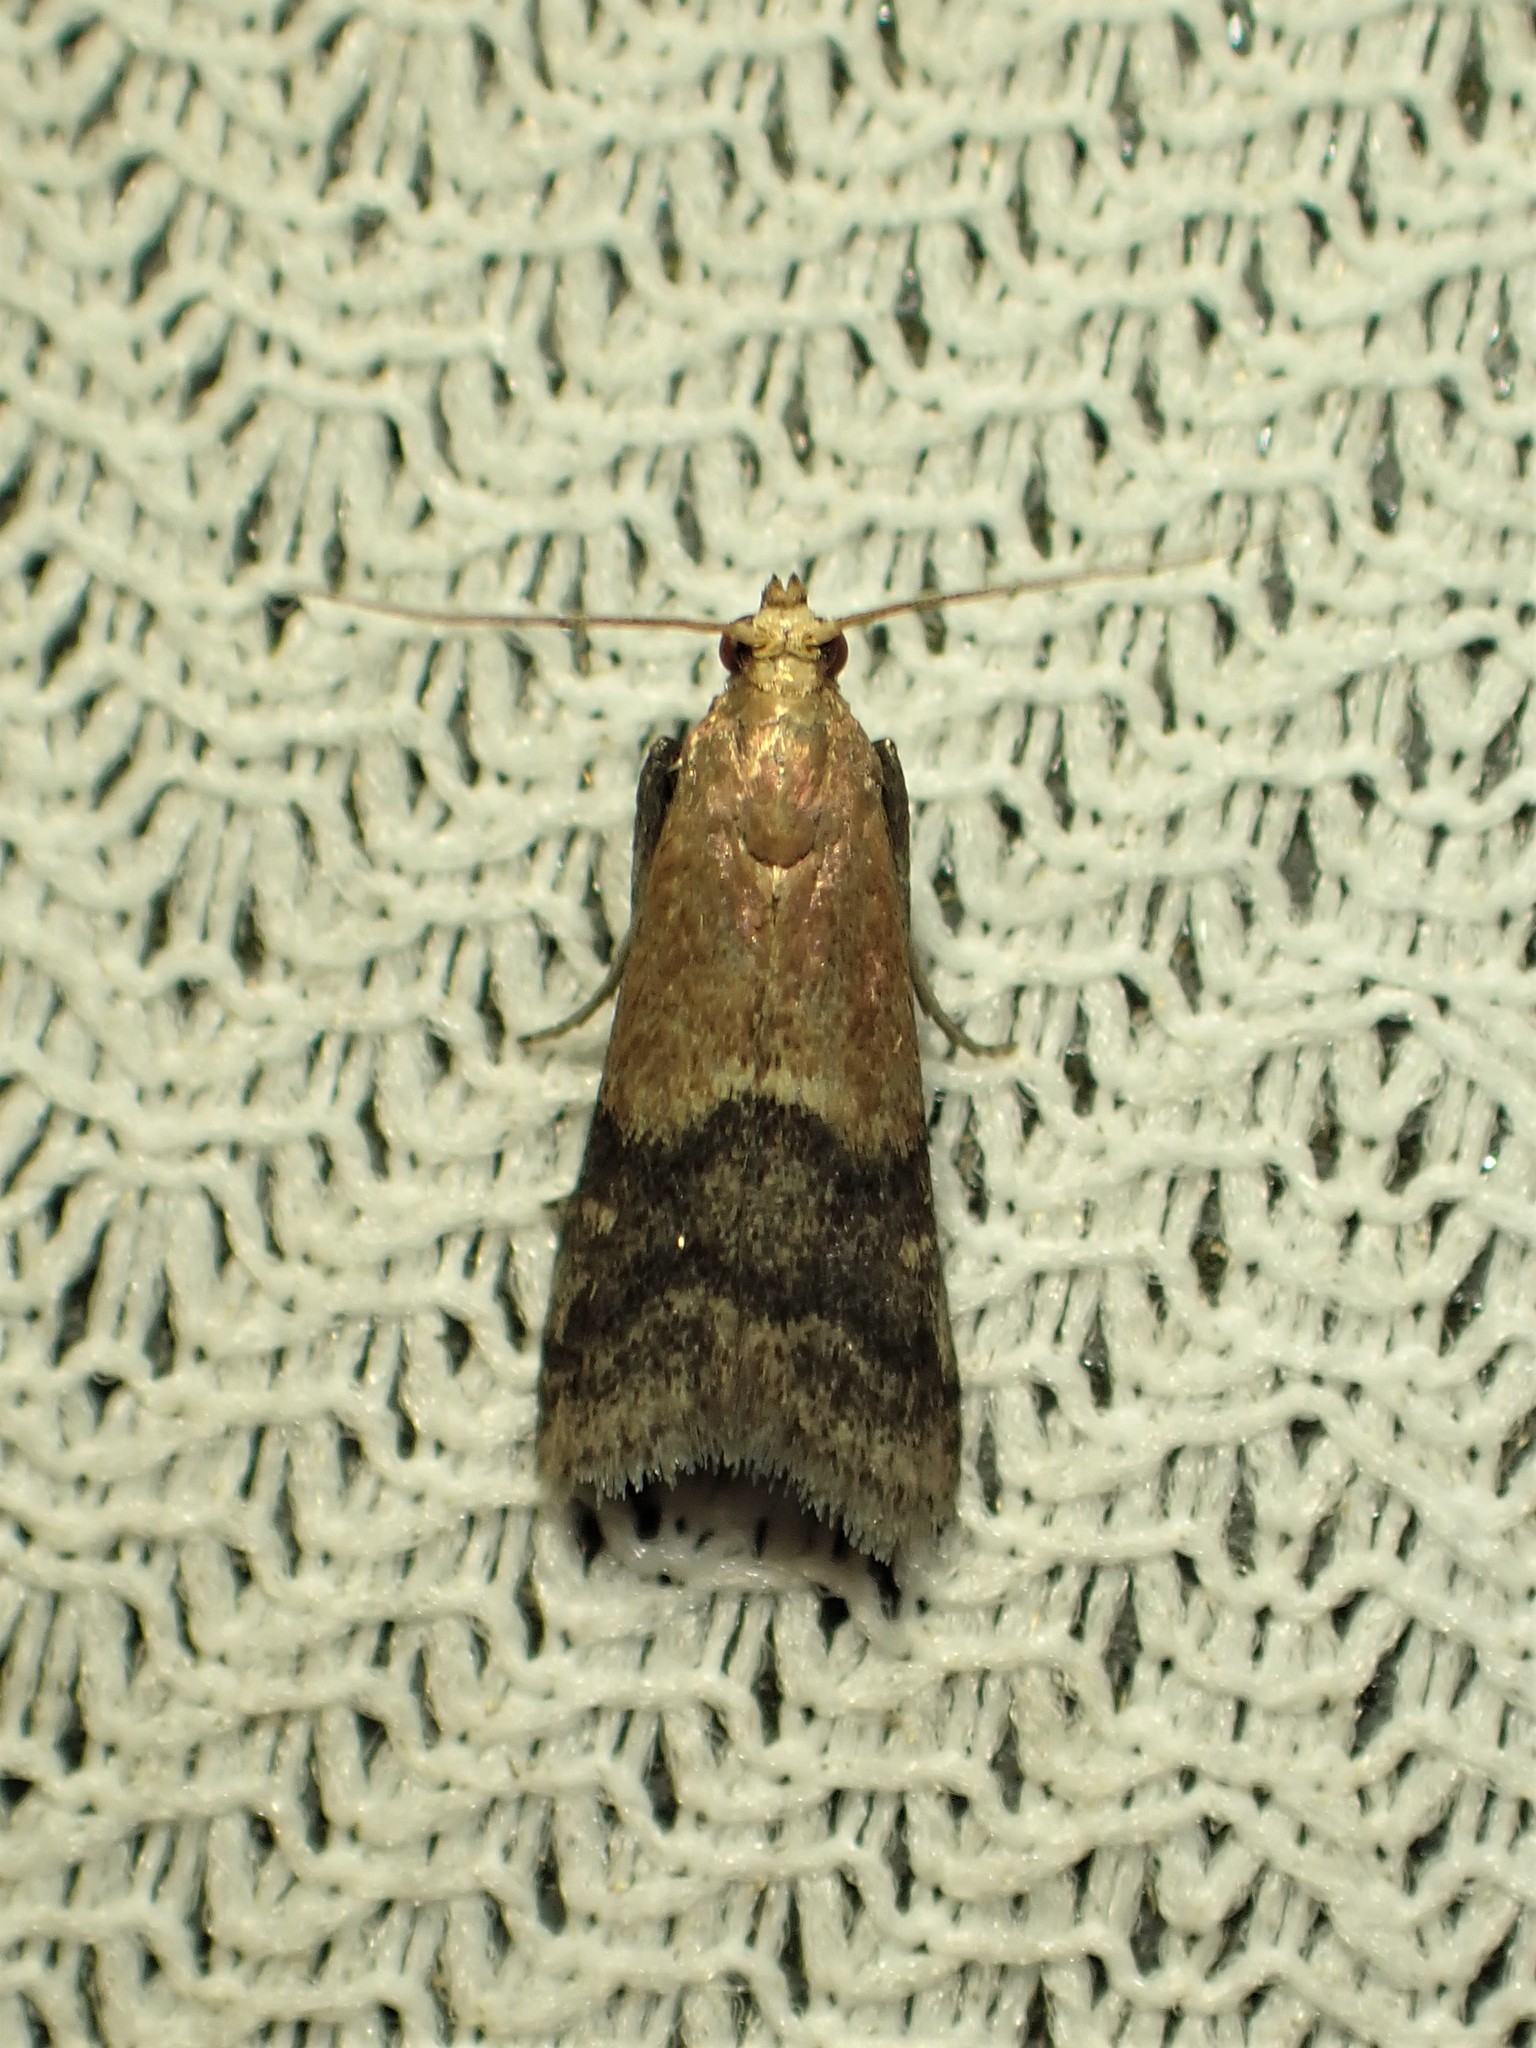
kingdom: Animalia
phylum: Arthropoda
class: Insecta
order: Lepidoptera
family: Pyralidae
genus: Eulogia
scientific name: Eulogia ochrifrontella
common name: Broad-banded eulogia moth
